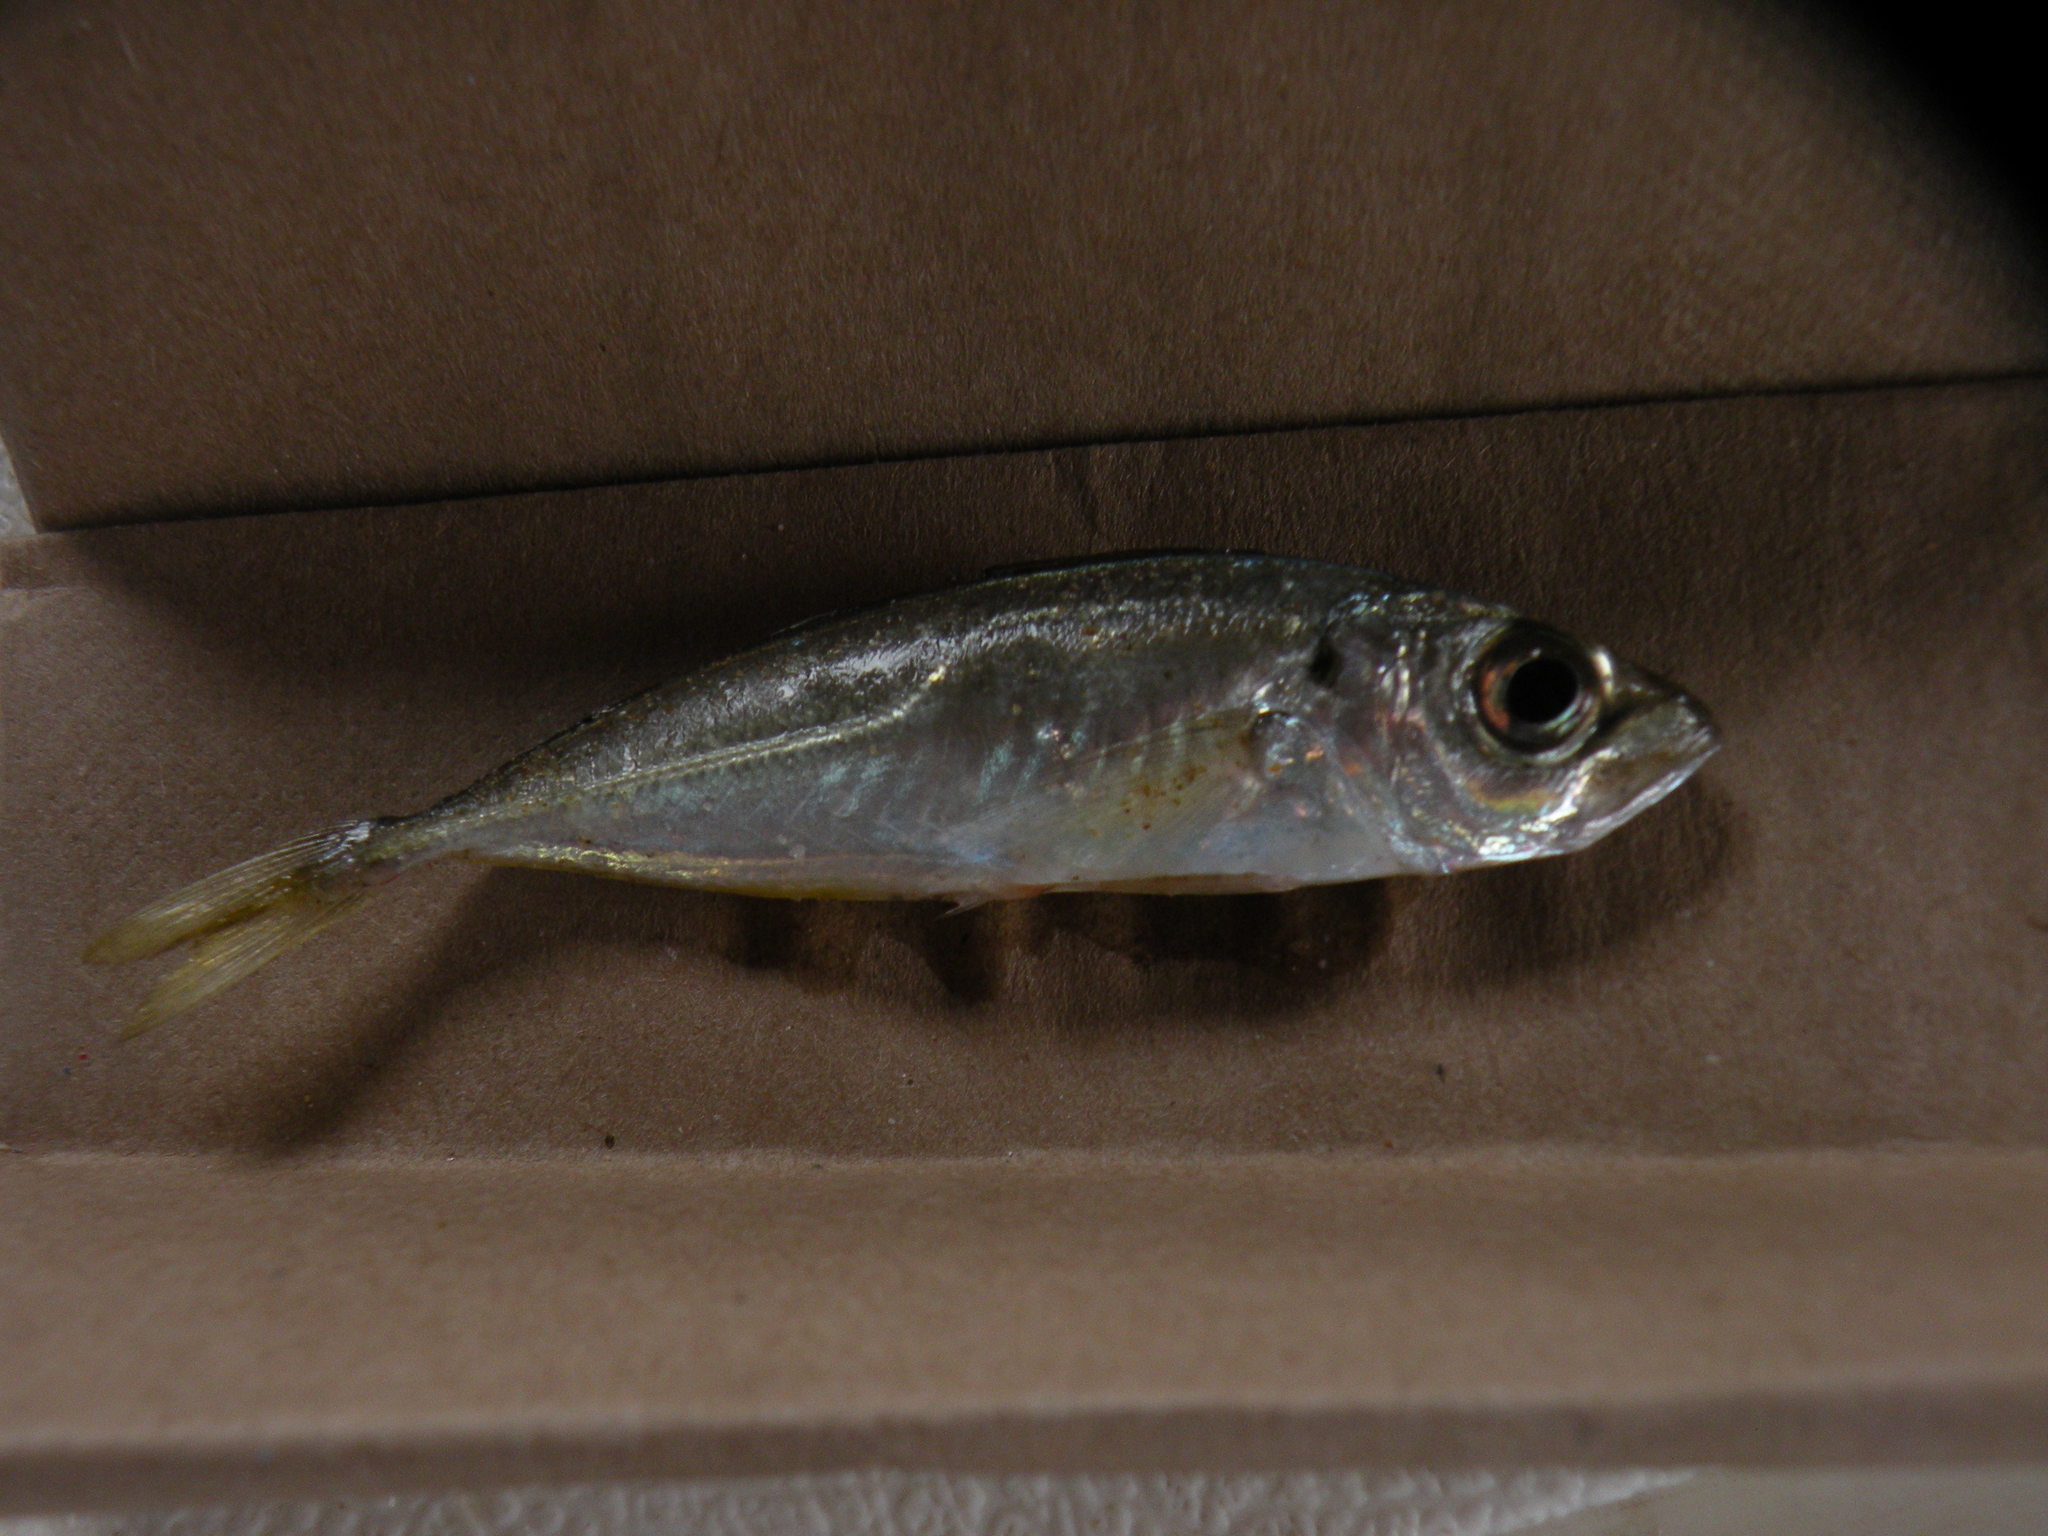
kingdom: Animalia
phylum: Chordata
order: Perciformes
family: Carangidae
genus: Trachurus
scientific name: Trachurus lathami
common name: Rough scad
